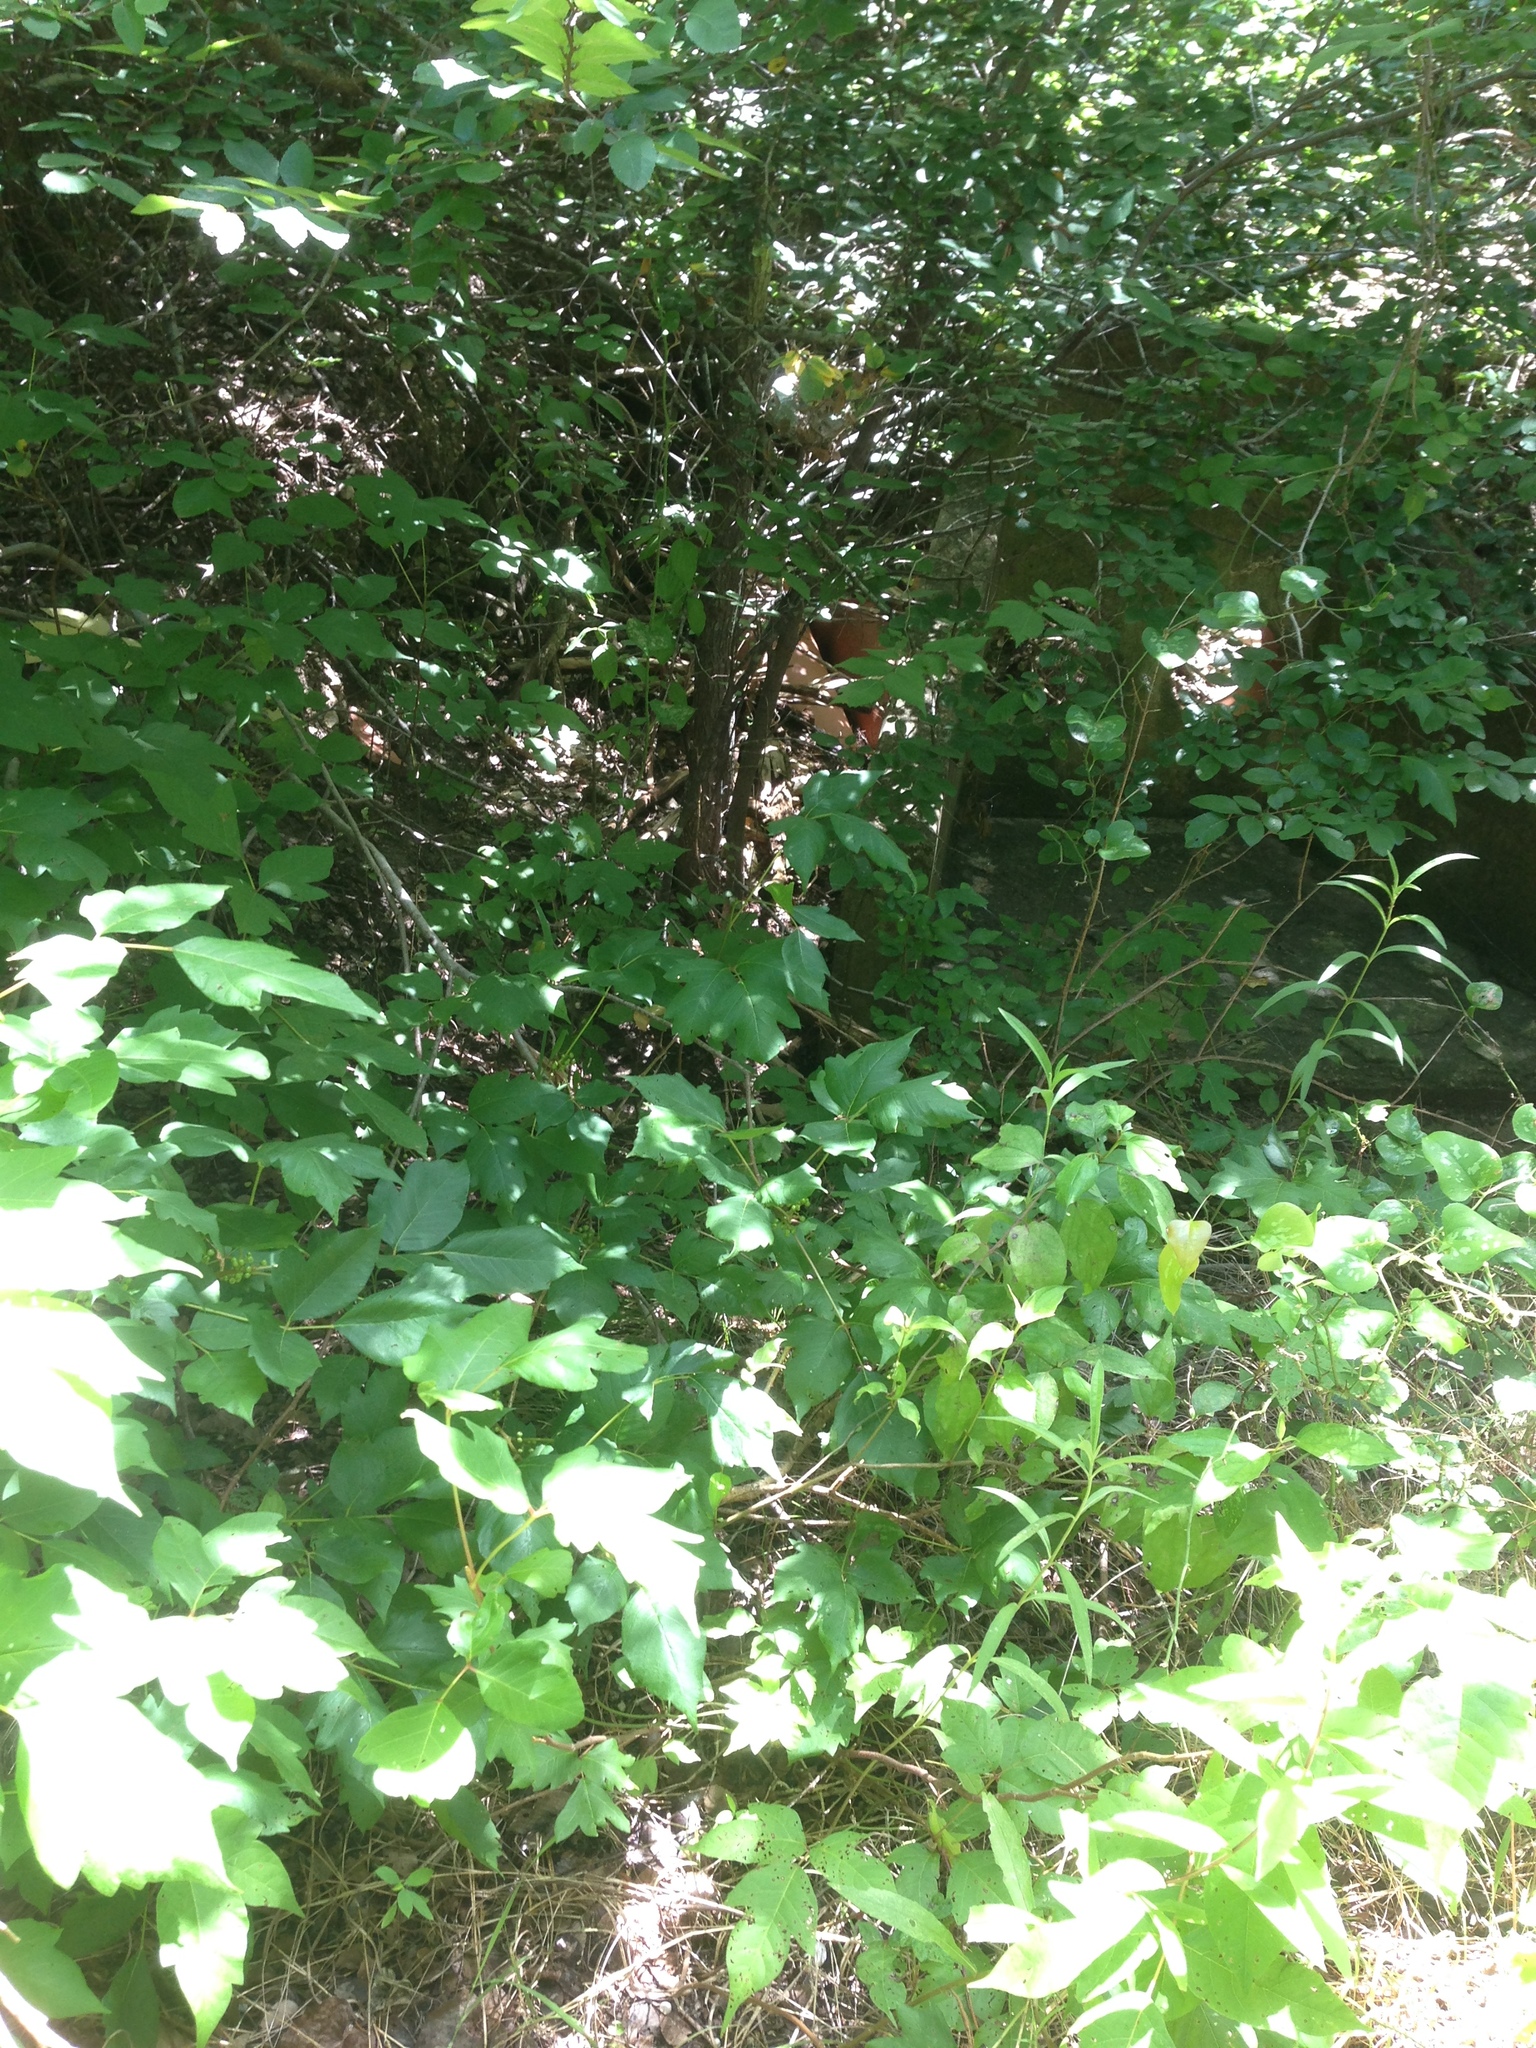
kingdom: Plantae
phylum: Tracheophyta
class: Magnoliopsida
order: Sapindales
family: Anacardiaceae
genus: Toxicodendron
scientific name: Toxicodendron radicans
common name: Poison ivy
